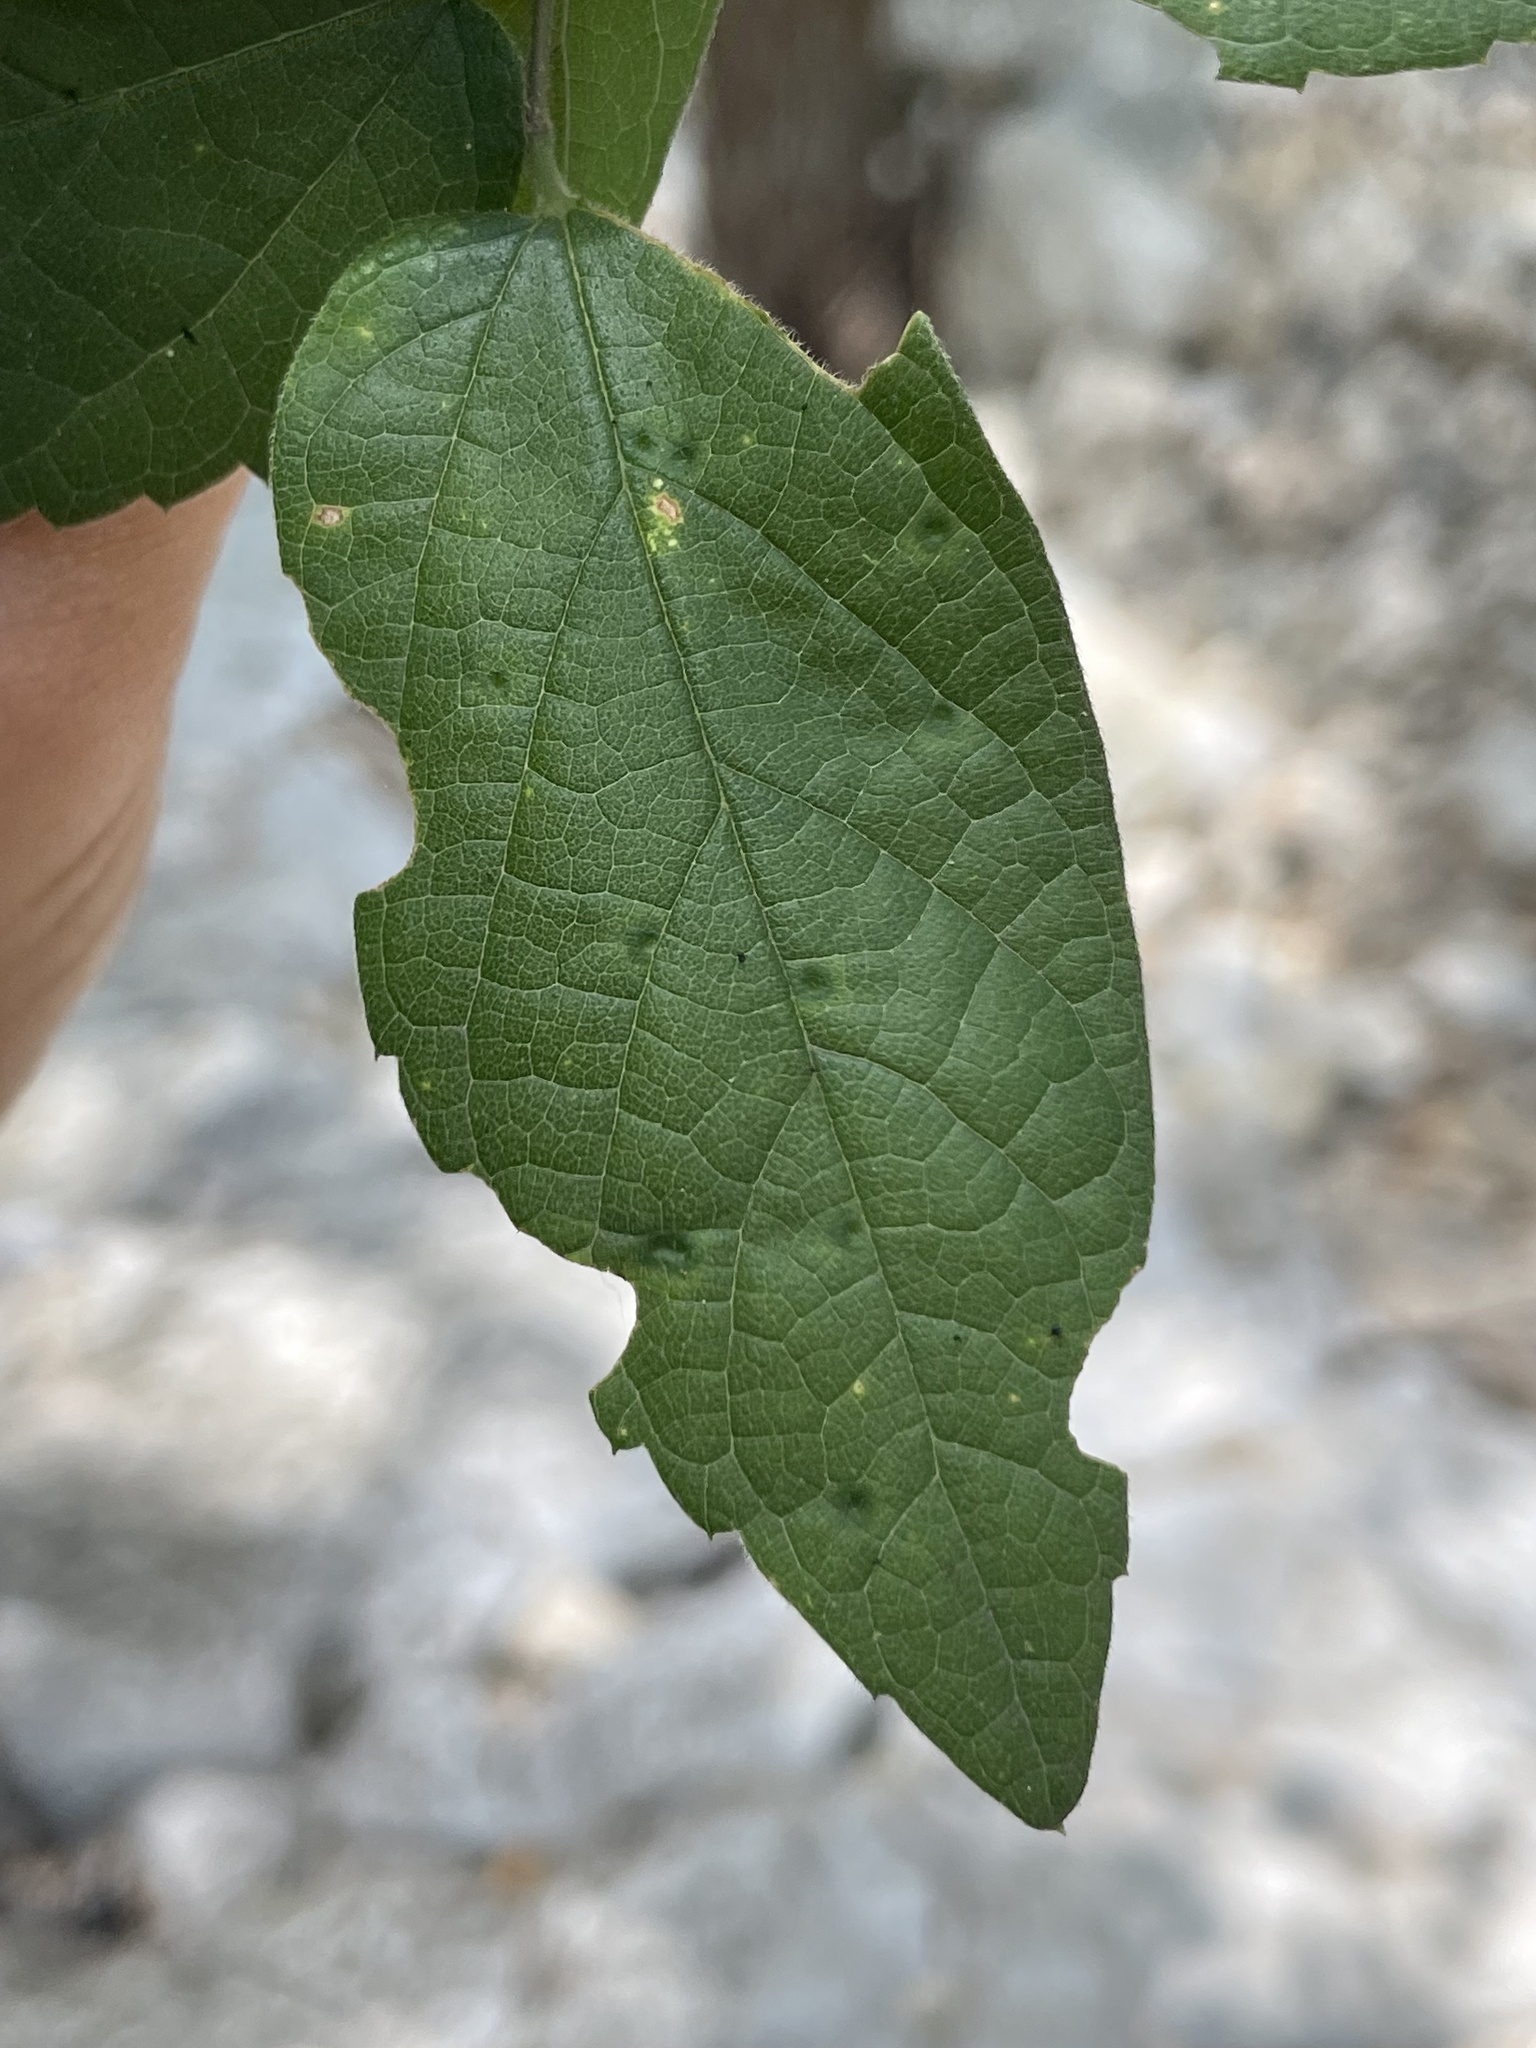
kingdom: Animalia
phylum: Arthropoda
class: Insecta
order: Diptera
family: Cecidomyiidae
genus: Celticecis
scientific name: Celticecis aciculata
